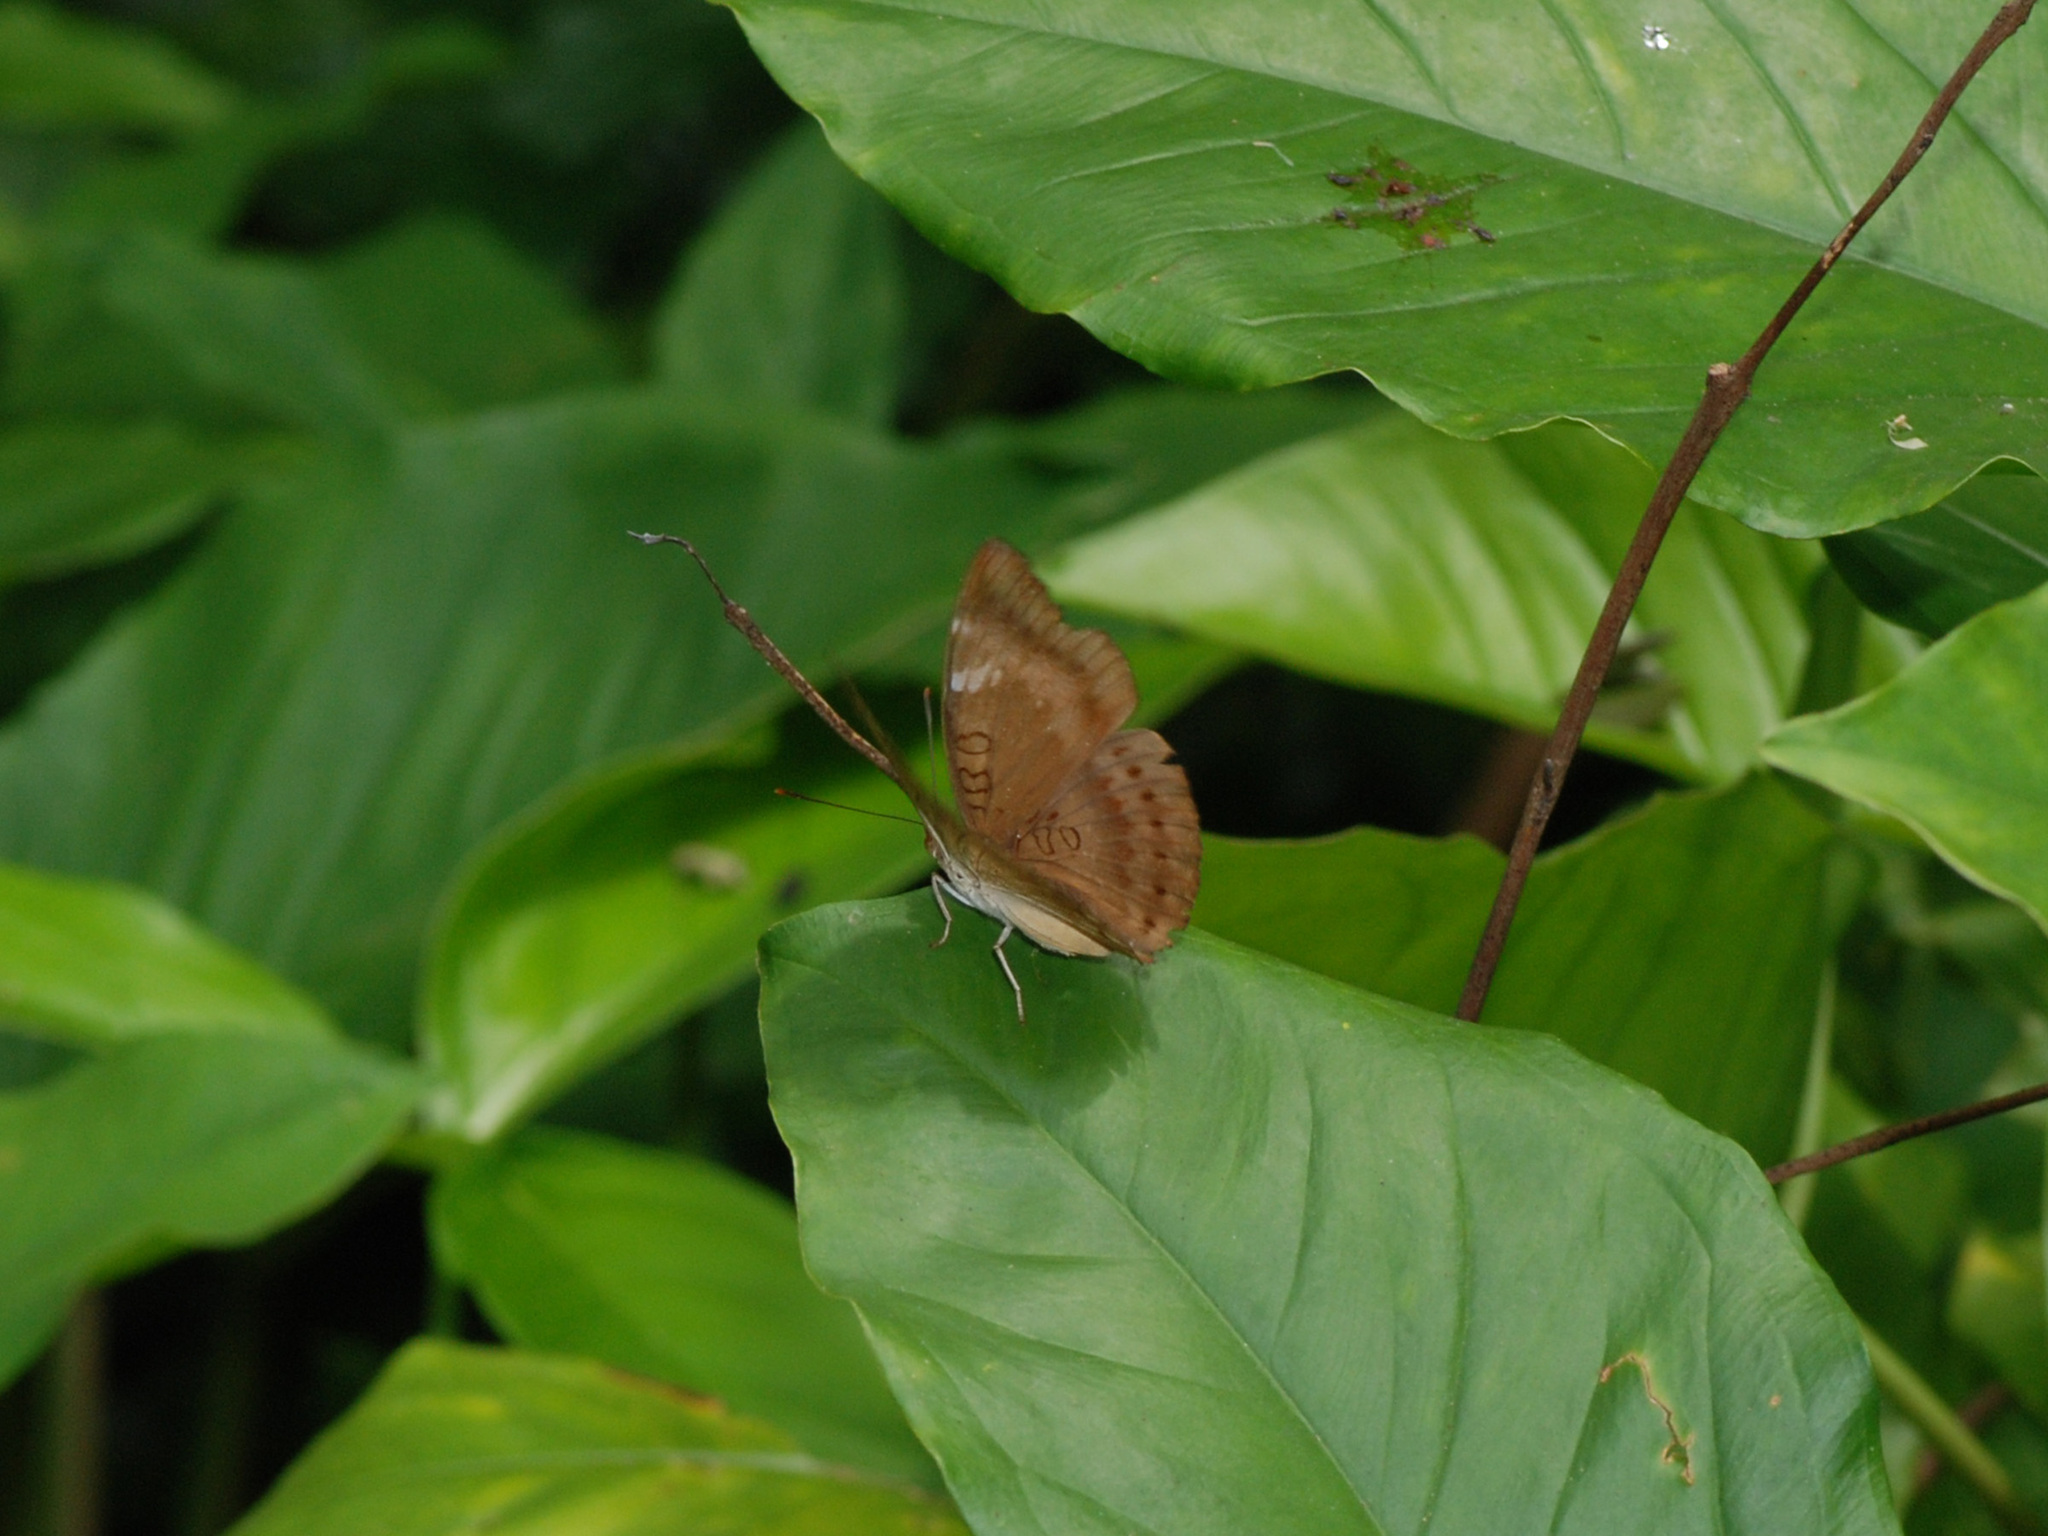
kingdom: Animalia
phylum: Arthropoda
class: Insecta
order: Lepidoptera
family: Nymphalidae
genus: Euthalia
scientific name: Euthalia aconthea
